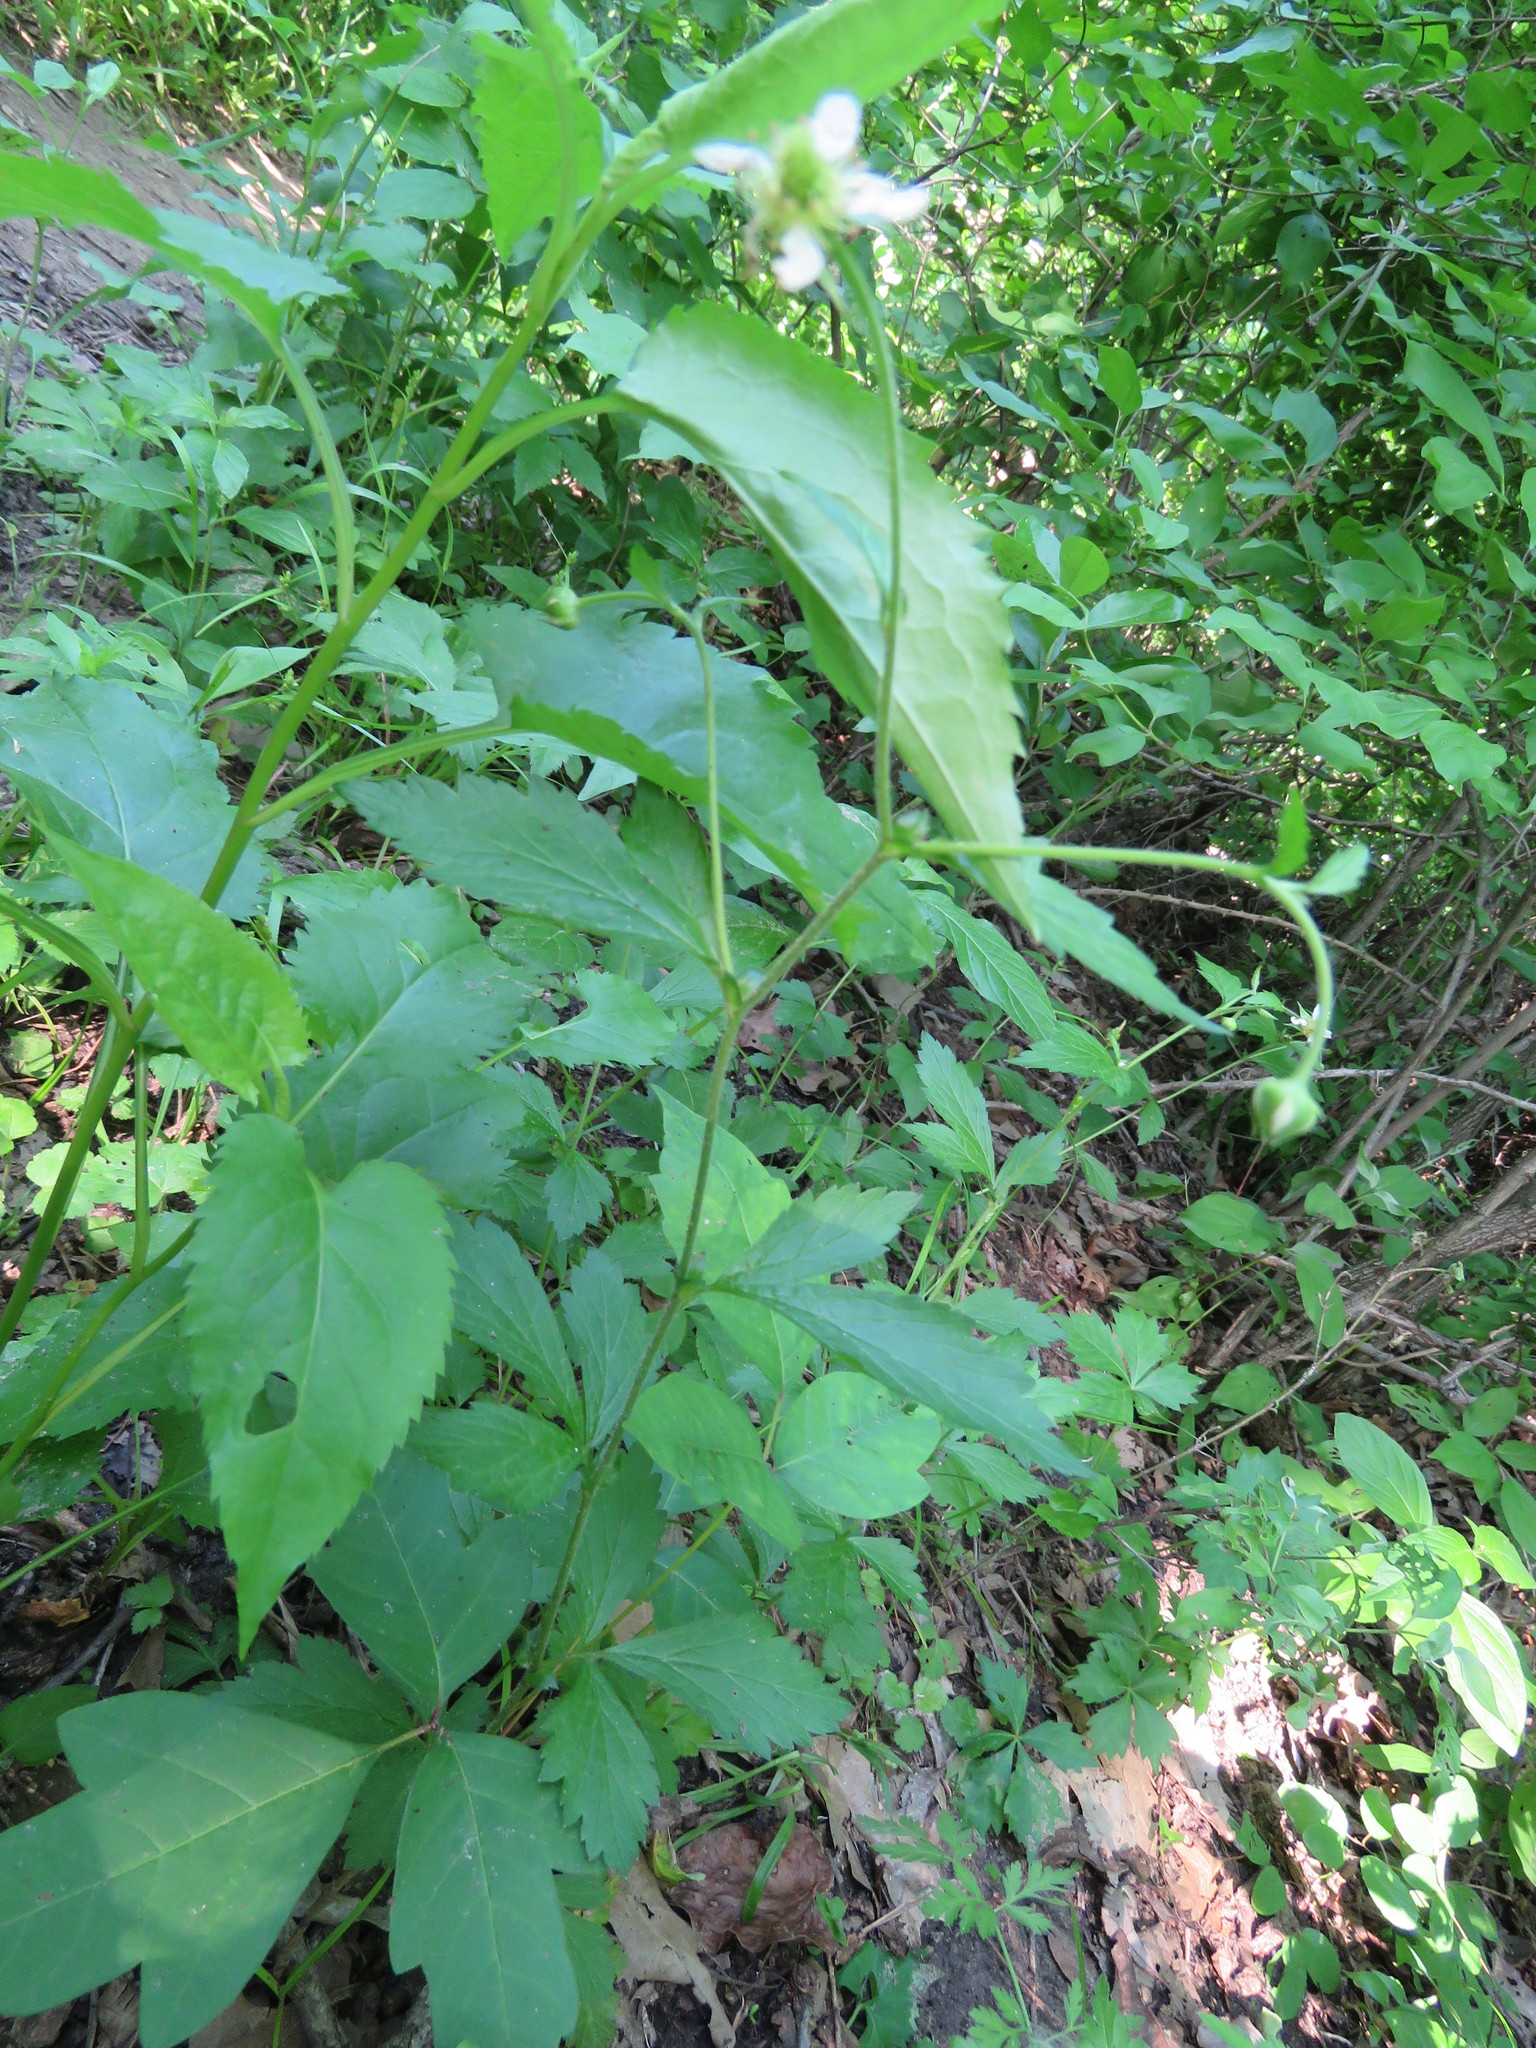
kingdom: Plantae
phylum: Tracheophyta
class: Magnoliopsida
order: Rosales
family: Rosaceae
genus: Geum
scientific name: Geum canadense
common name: White avens
